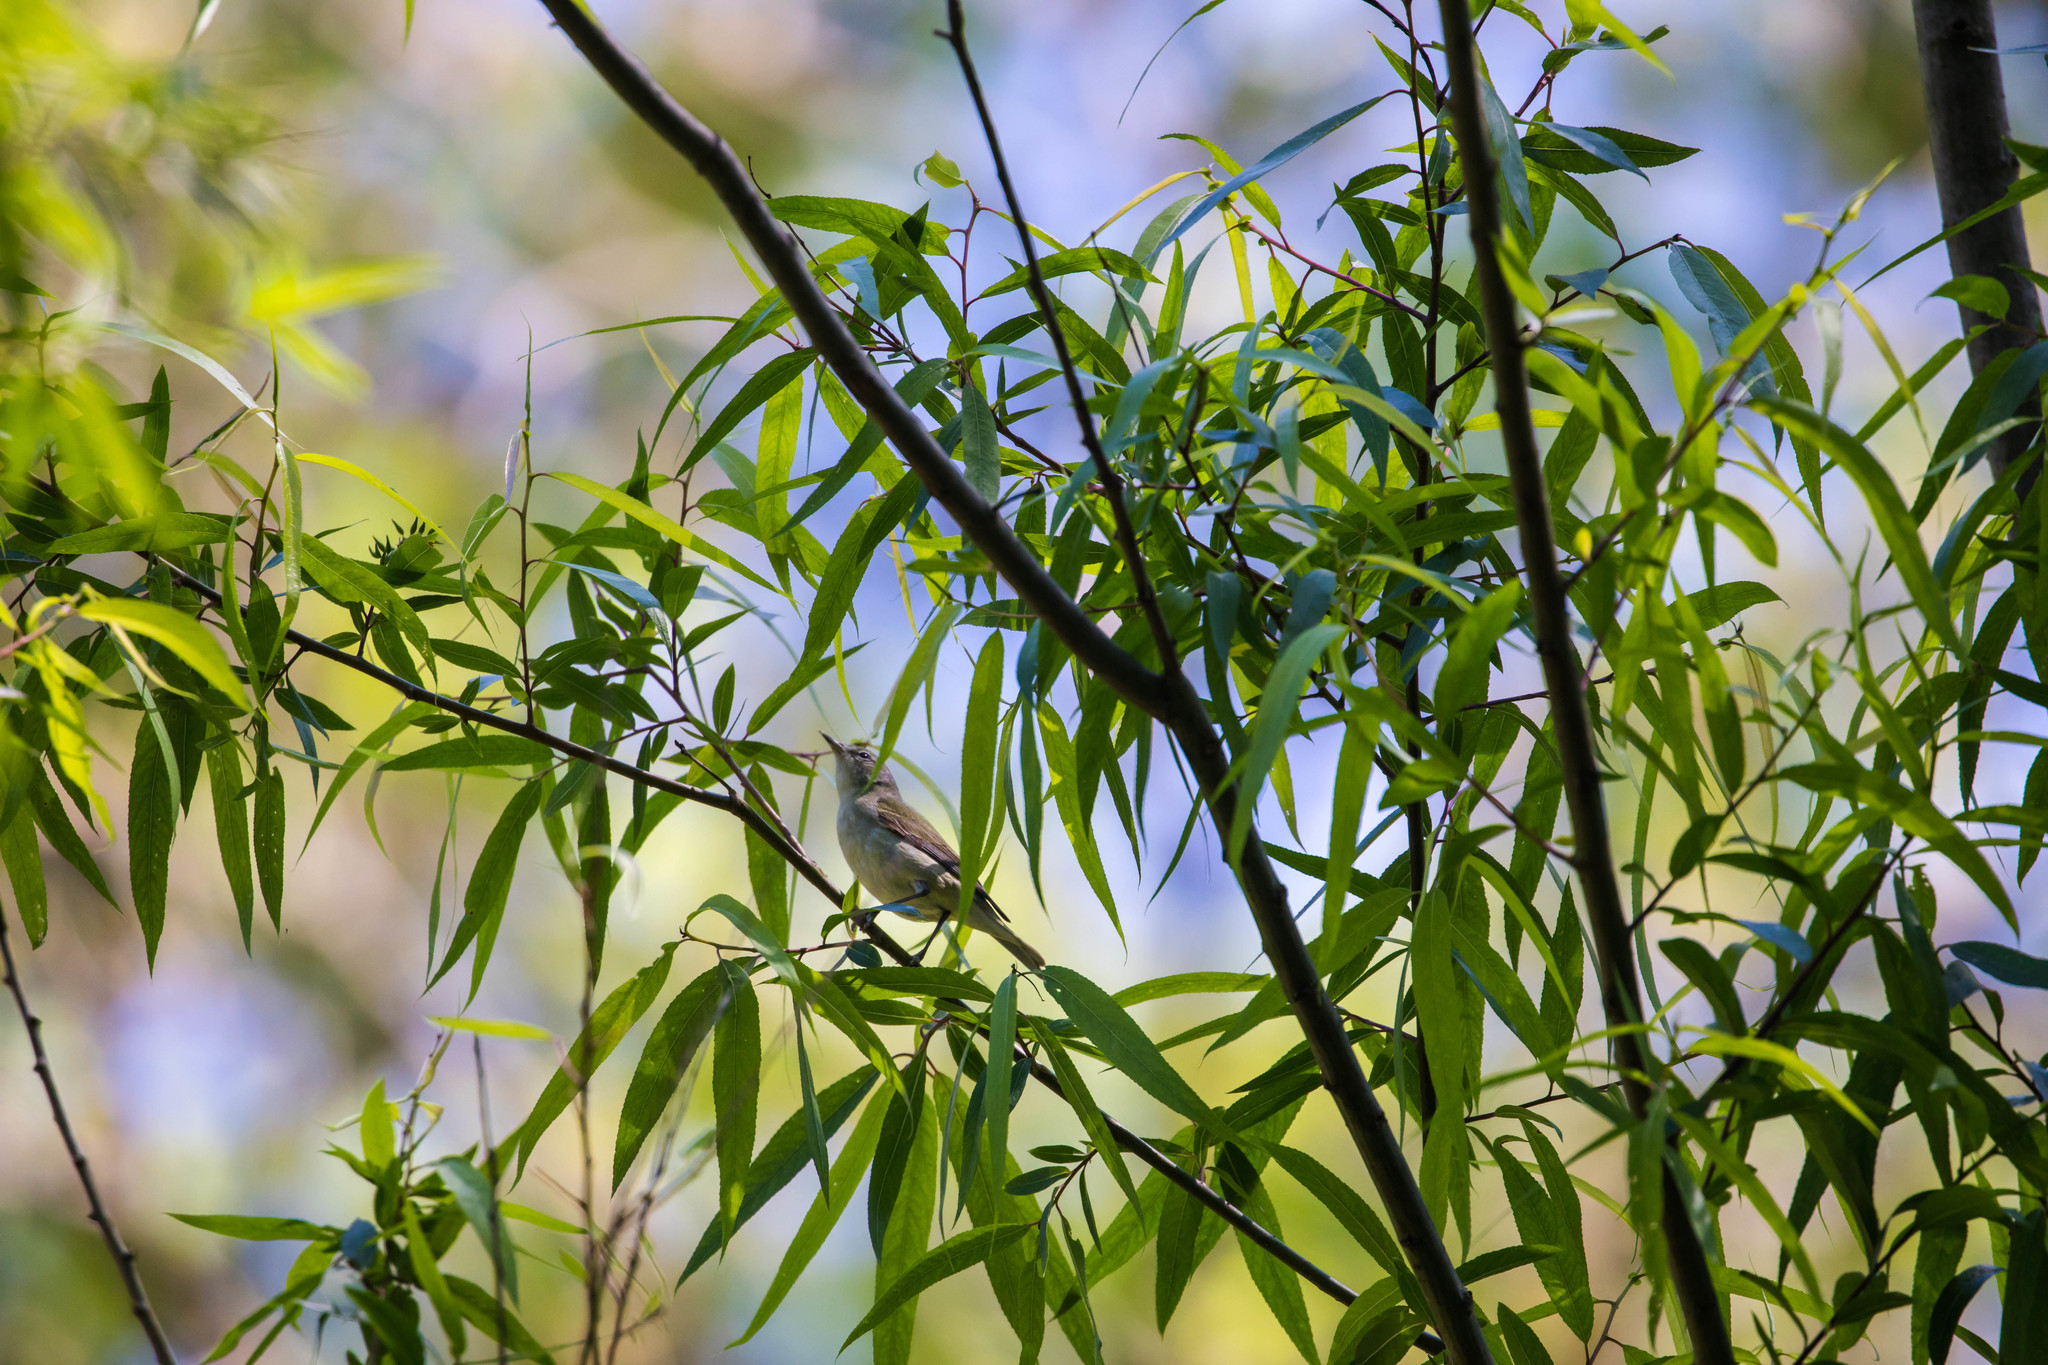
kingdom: Animalia
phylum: Chordata
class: Aves
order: Passeriformes
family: Parulidae
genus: Leiothlypis
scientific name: Leiothlypis peregrina
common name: Tennessee warbler
